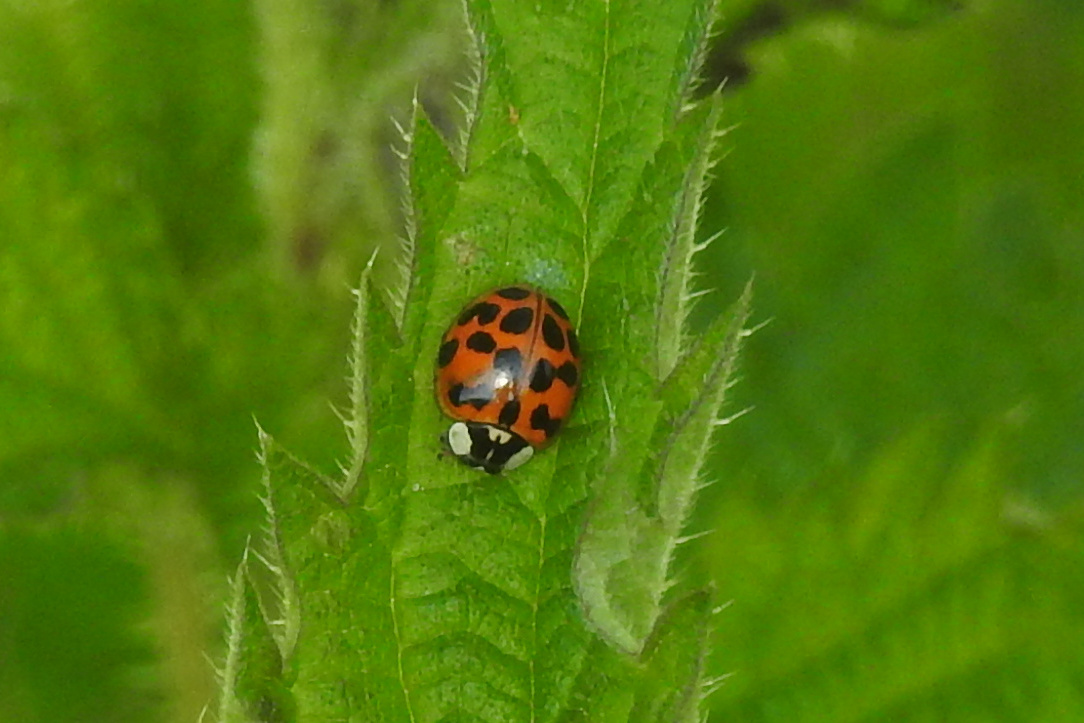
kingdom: Animalia
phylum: Arthropoda
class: Insecta
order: Coleoptera
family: Coccinellidae
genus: Harmonia
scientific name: Harmonia axyridis
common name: Harlequin ladybird
